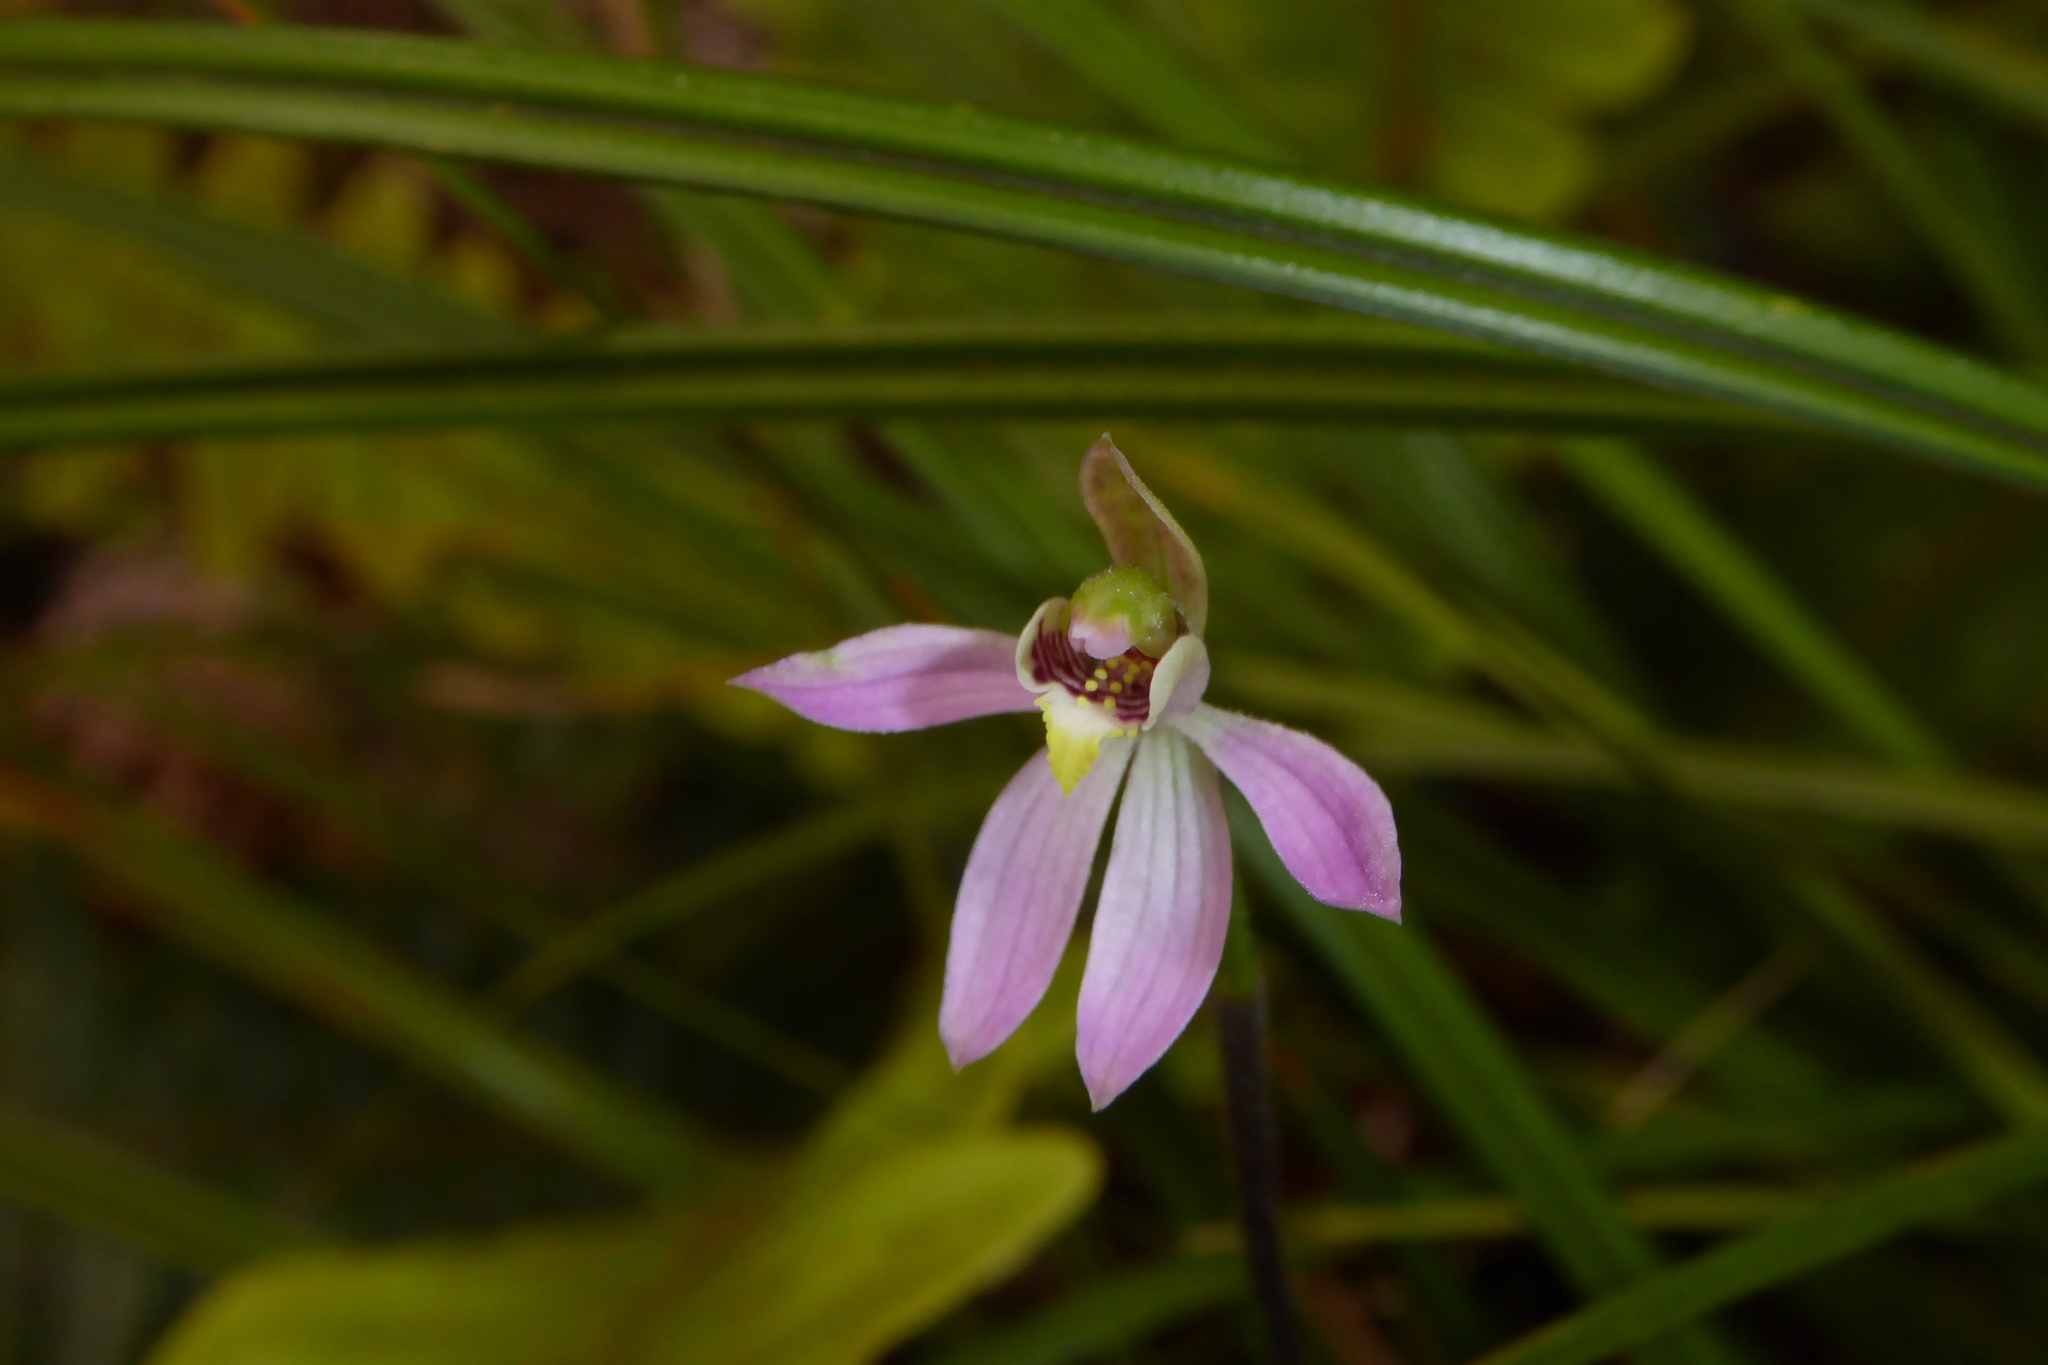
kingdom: Plantae
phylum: Tracheophyta
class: Liliopsida
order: Asparagales
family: Orchidaceae
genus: Caladenia
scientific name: Caladenia variegata
